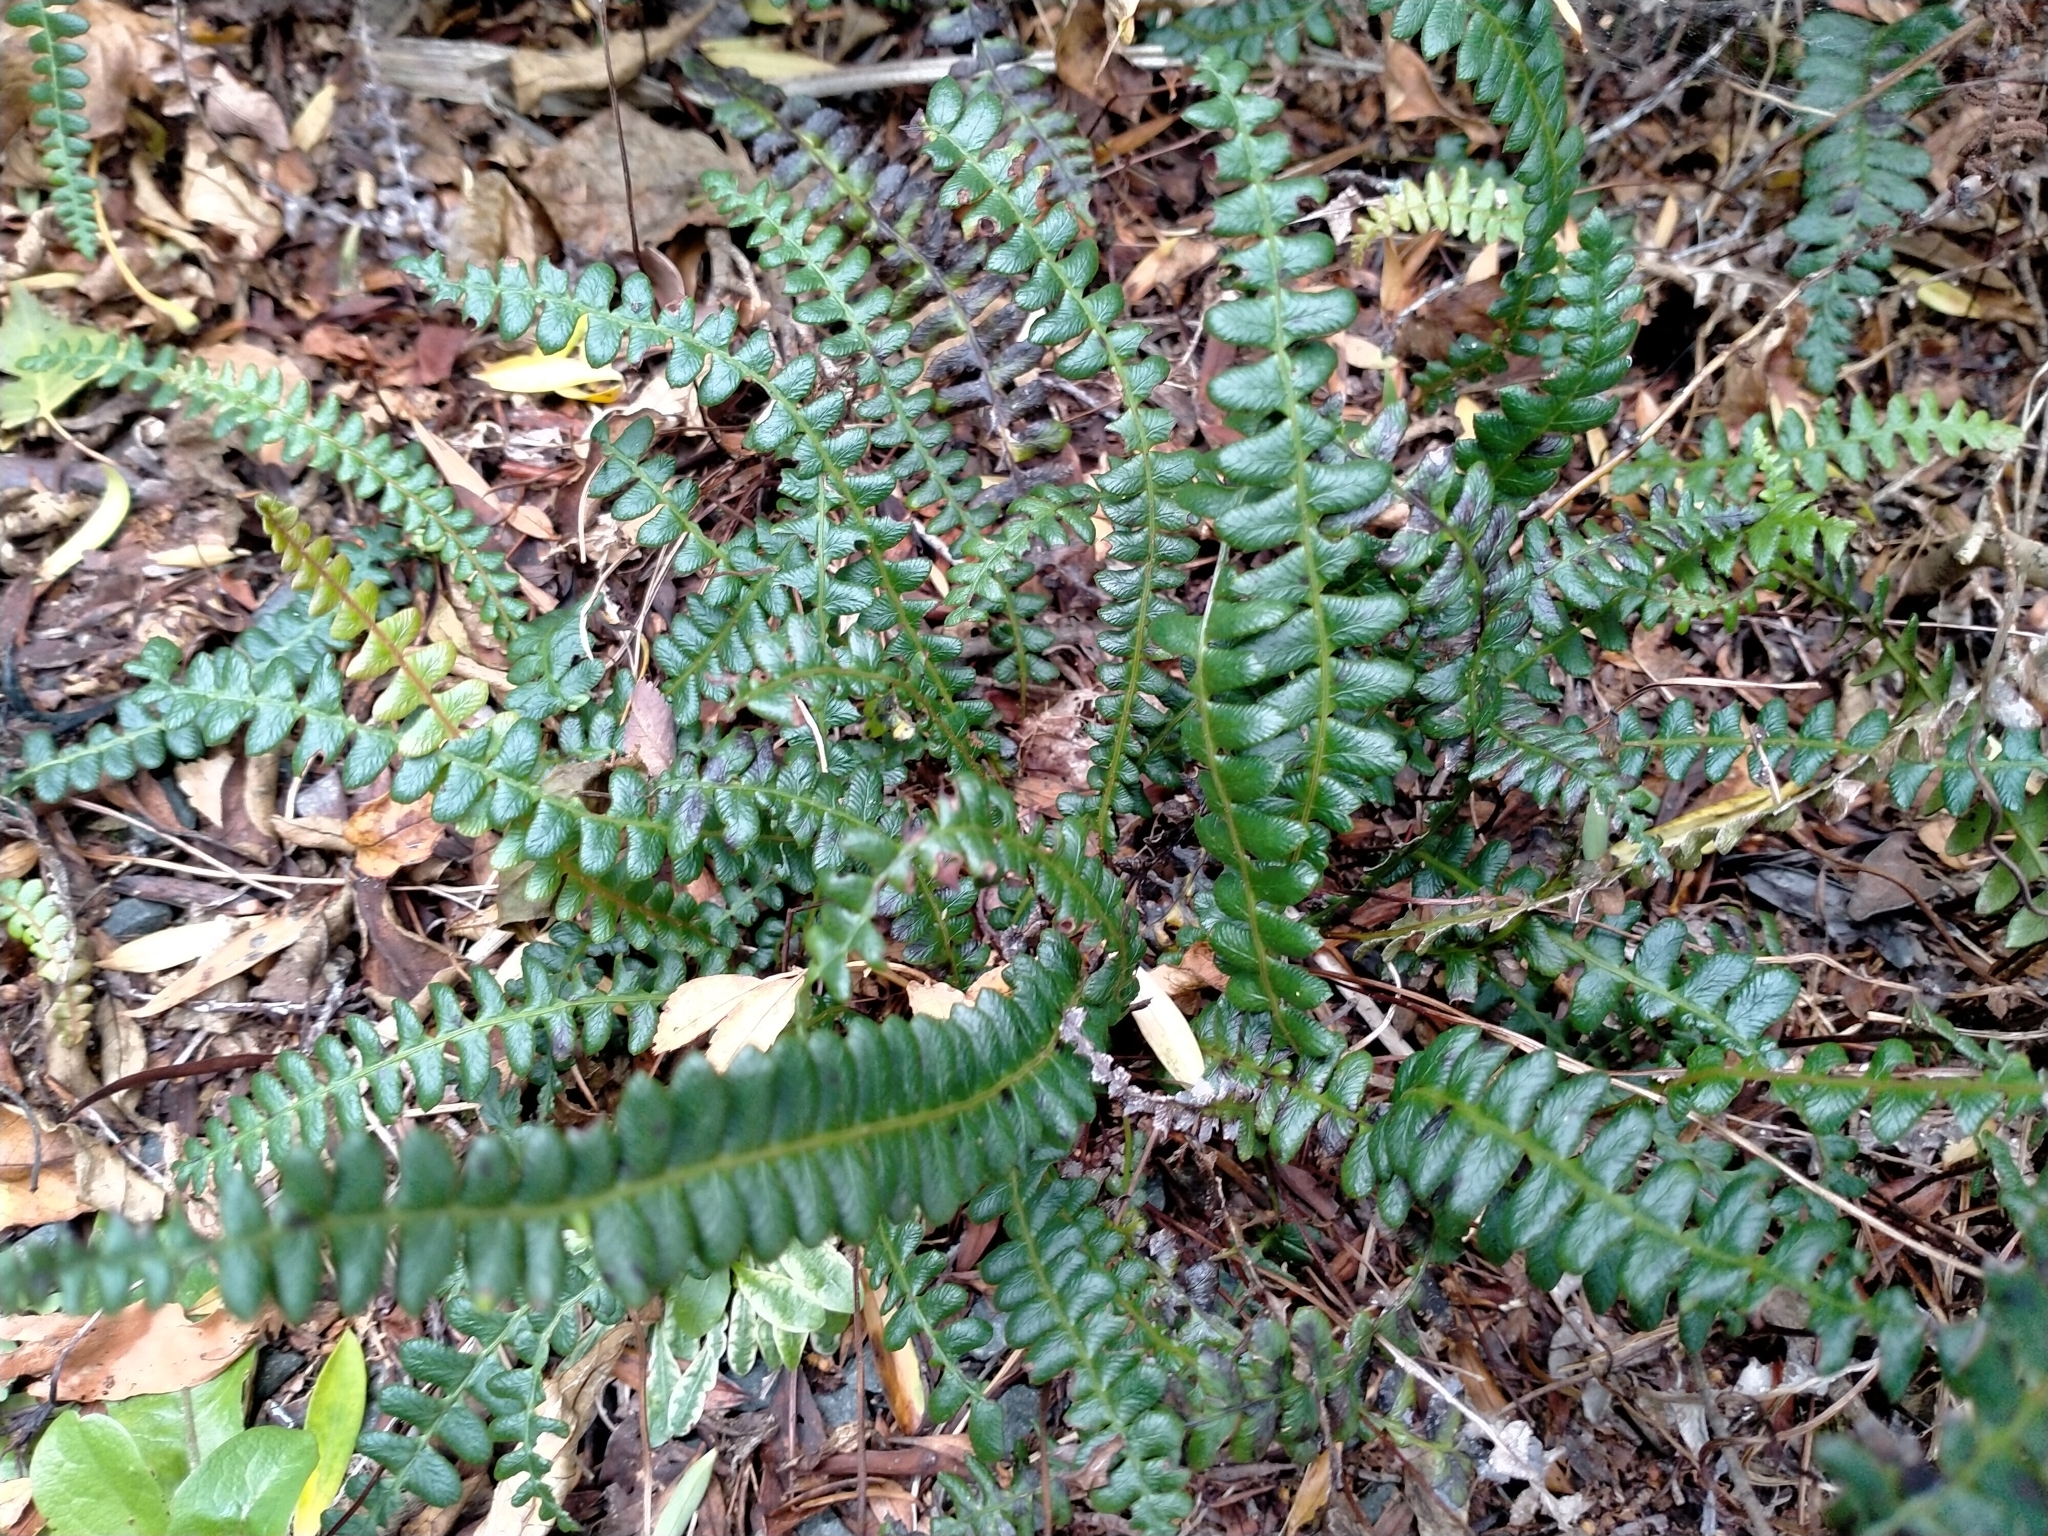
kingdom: Plantae
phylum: Tracheophyta
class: Polypodiopsida
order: Polypodiales
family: Blechnaceae
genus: Austroblechnum
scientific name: Austroblechnum penna-marina
